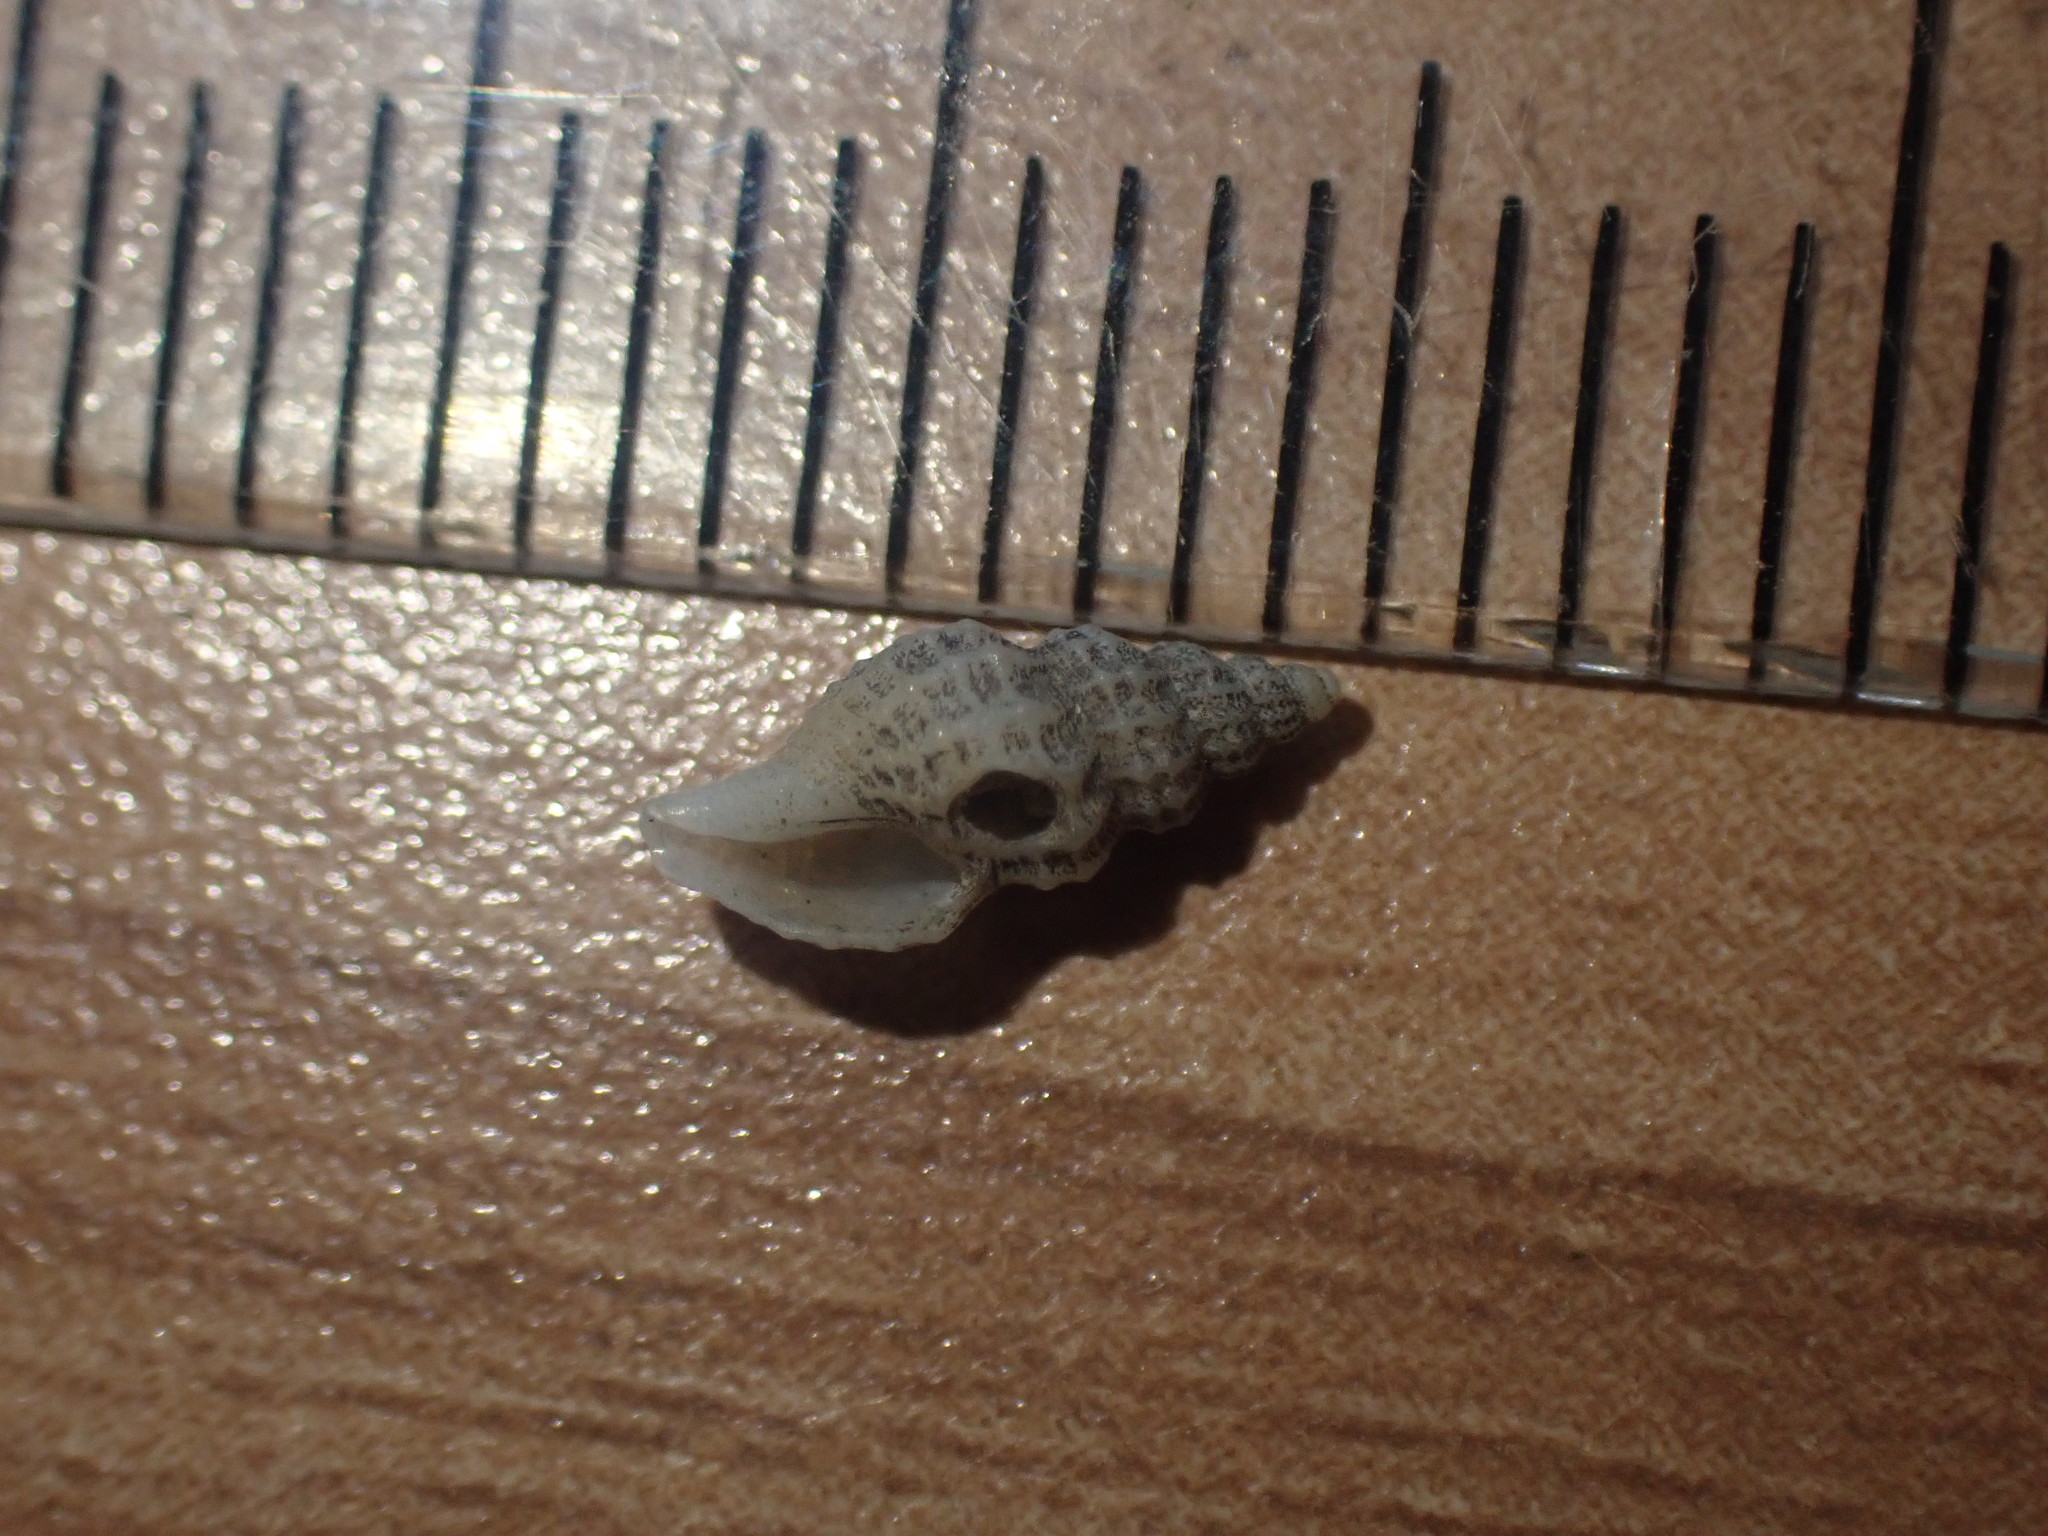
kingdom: Animalia
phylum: Mollusca
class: Gastropoda
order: Neogastropoda
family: Mangeliidae
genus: Heterocithara
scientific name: Heterocithara mediocris
